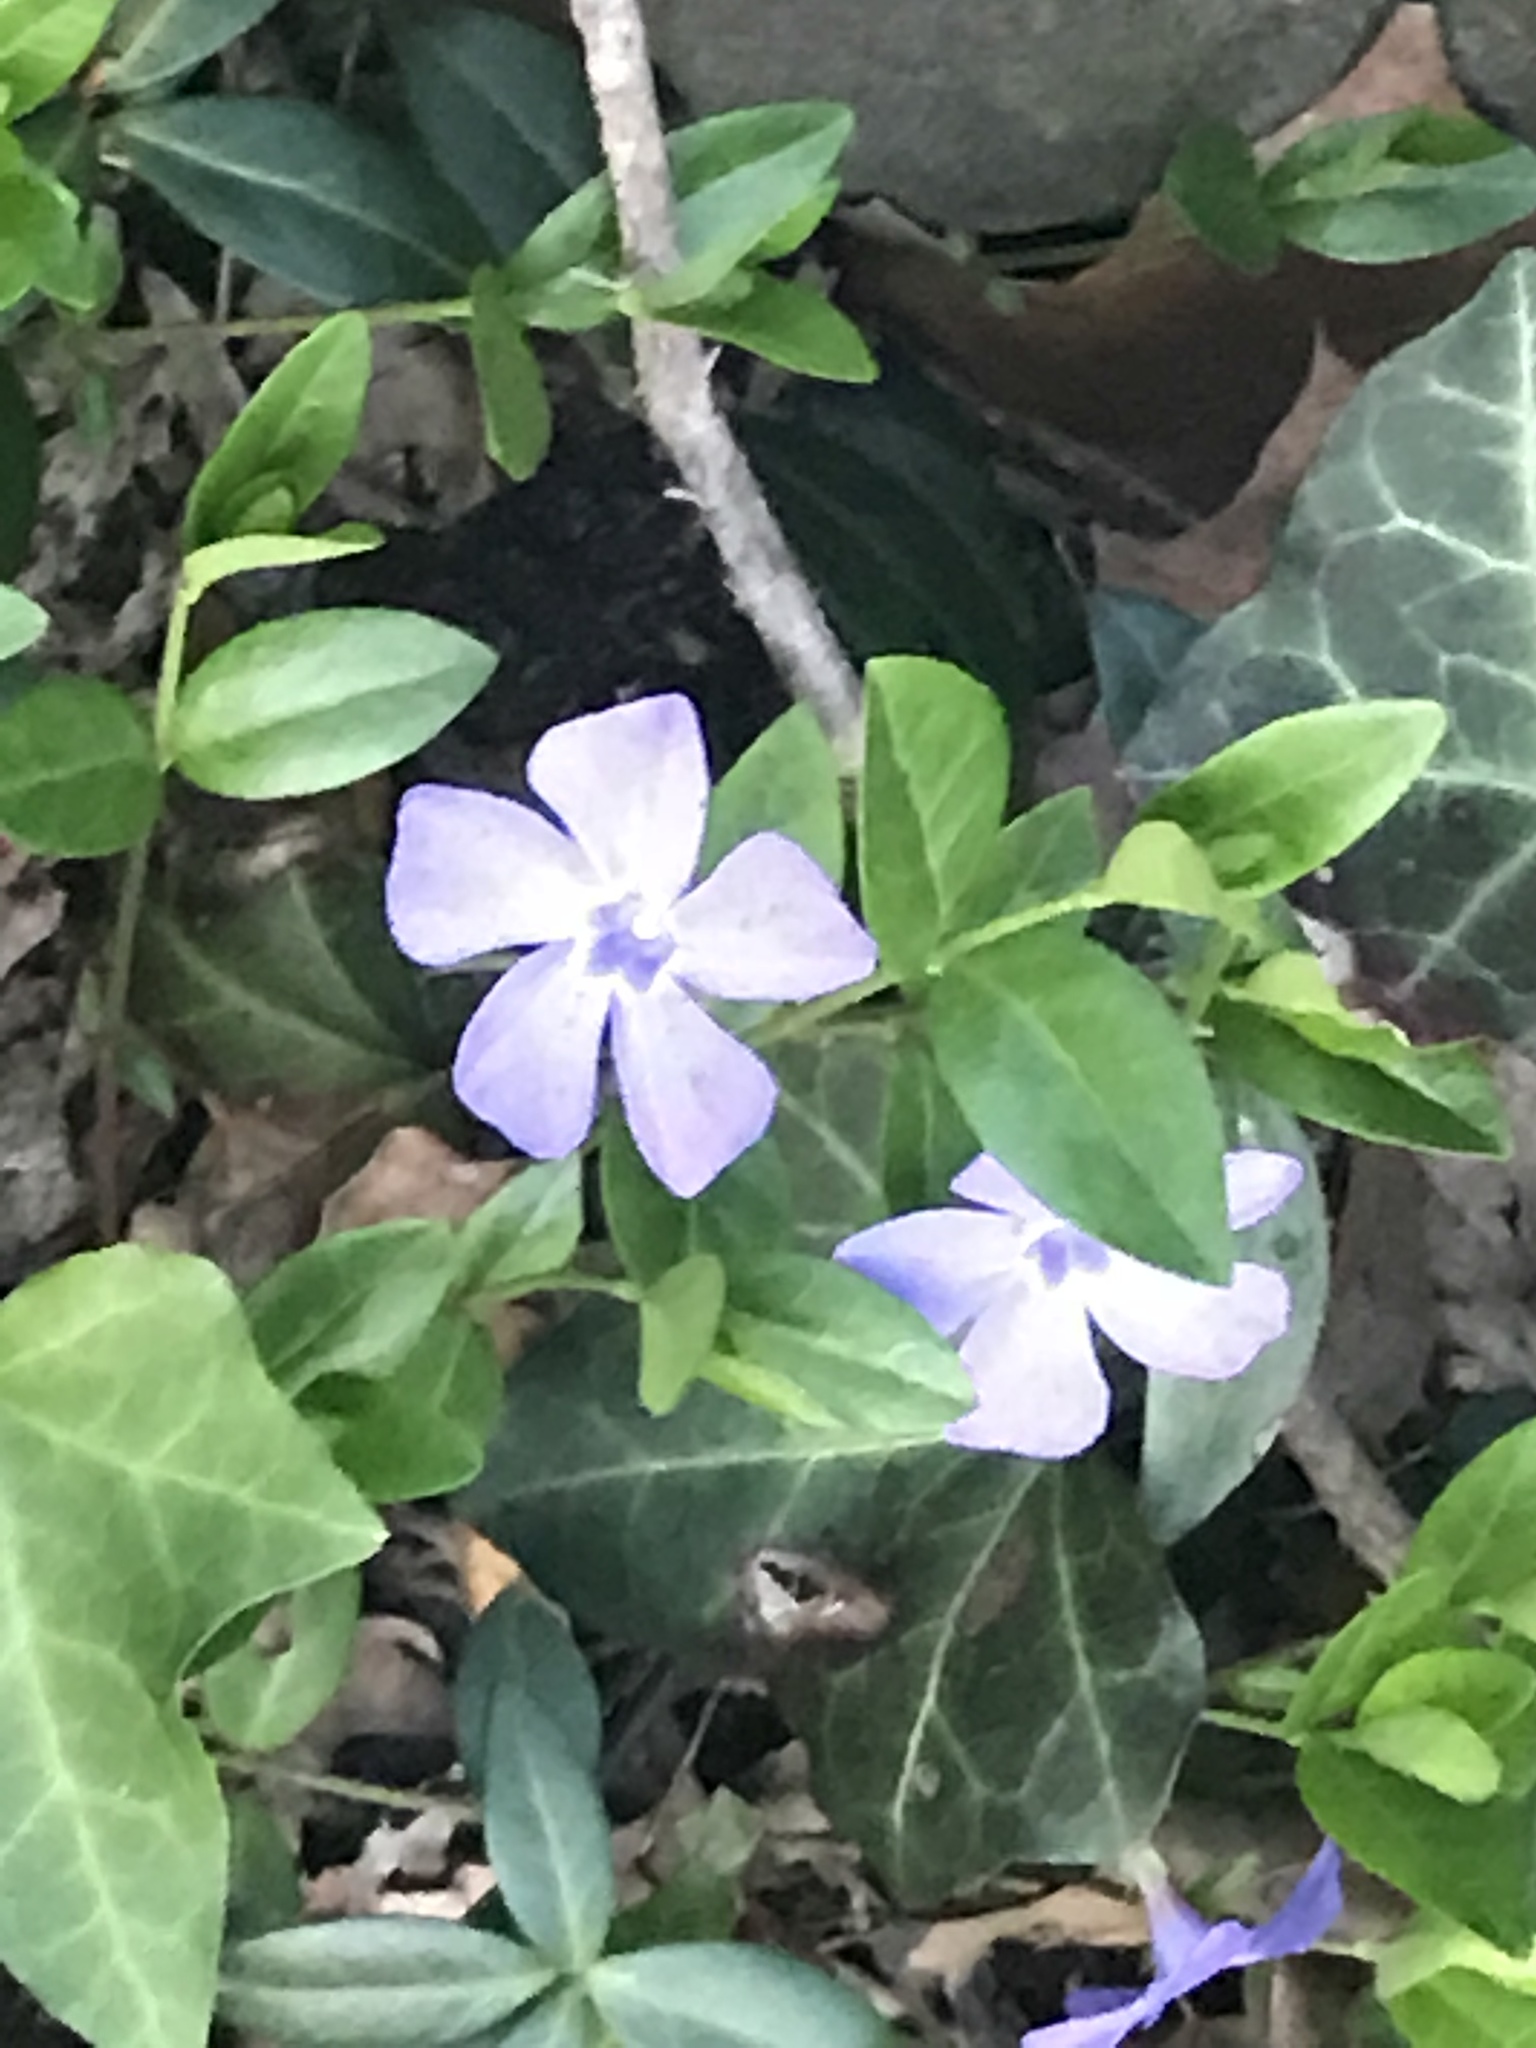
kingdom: Plantae
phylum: Tracheophyta
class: Magnoliopsida
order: Gentianales
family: Apocynaceae
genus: Vinca
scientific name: Vinca minor
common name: Lesser periwinkle
